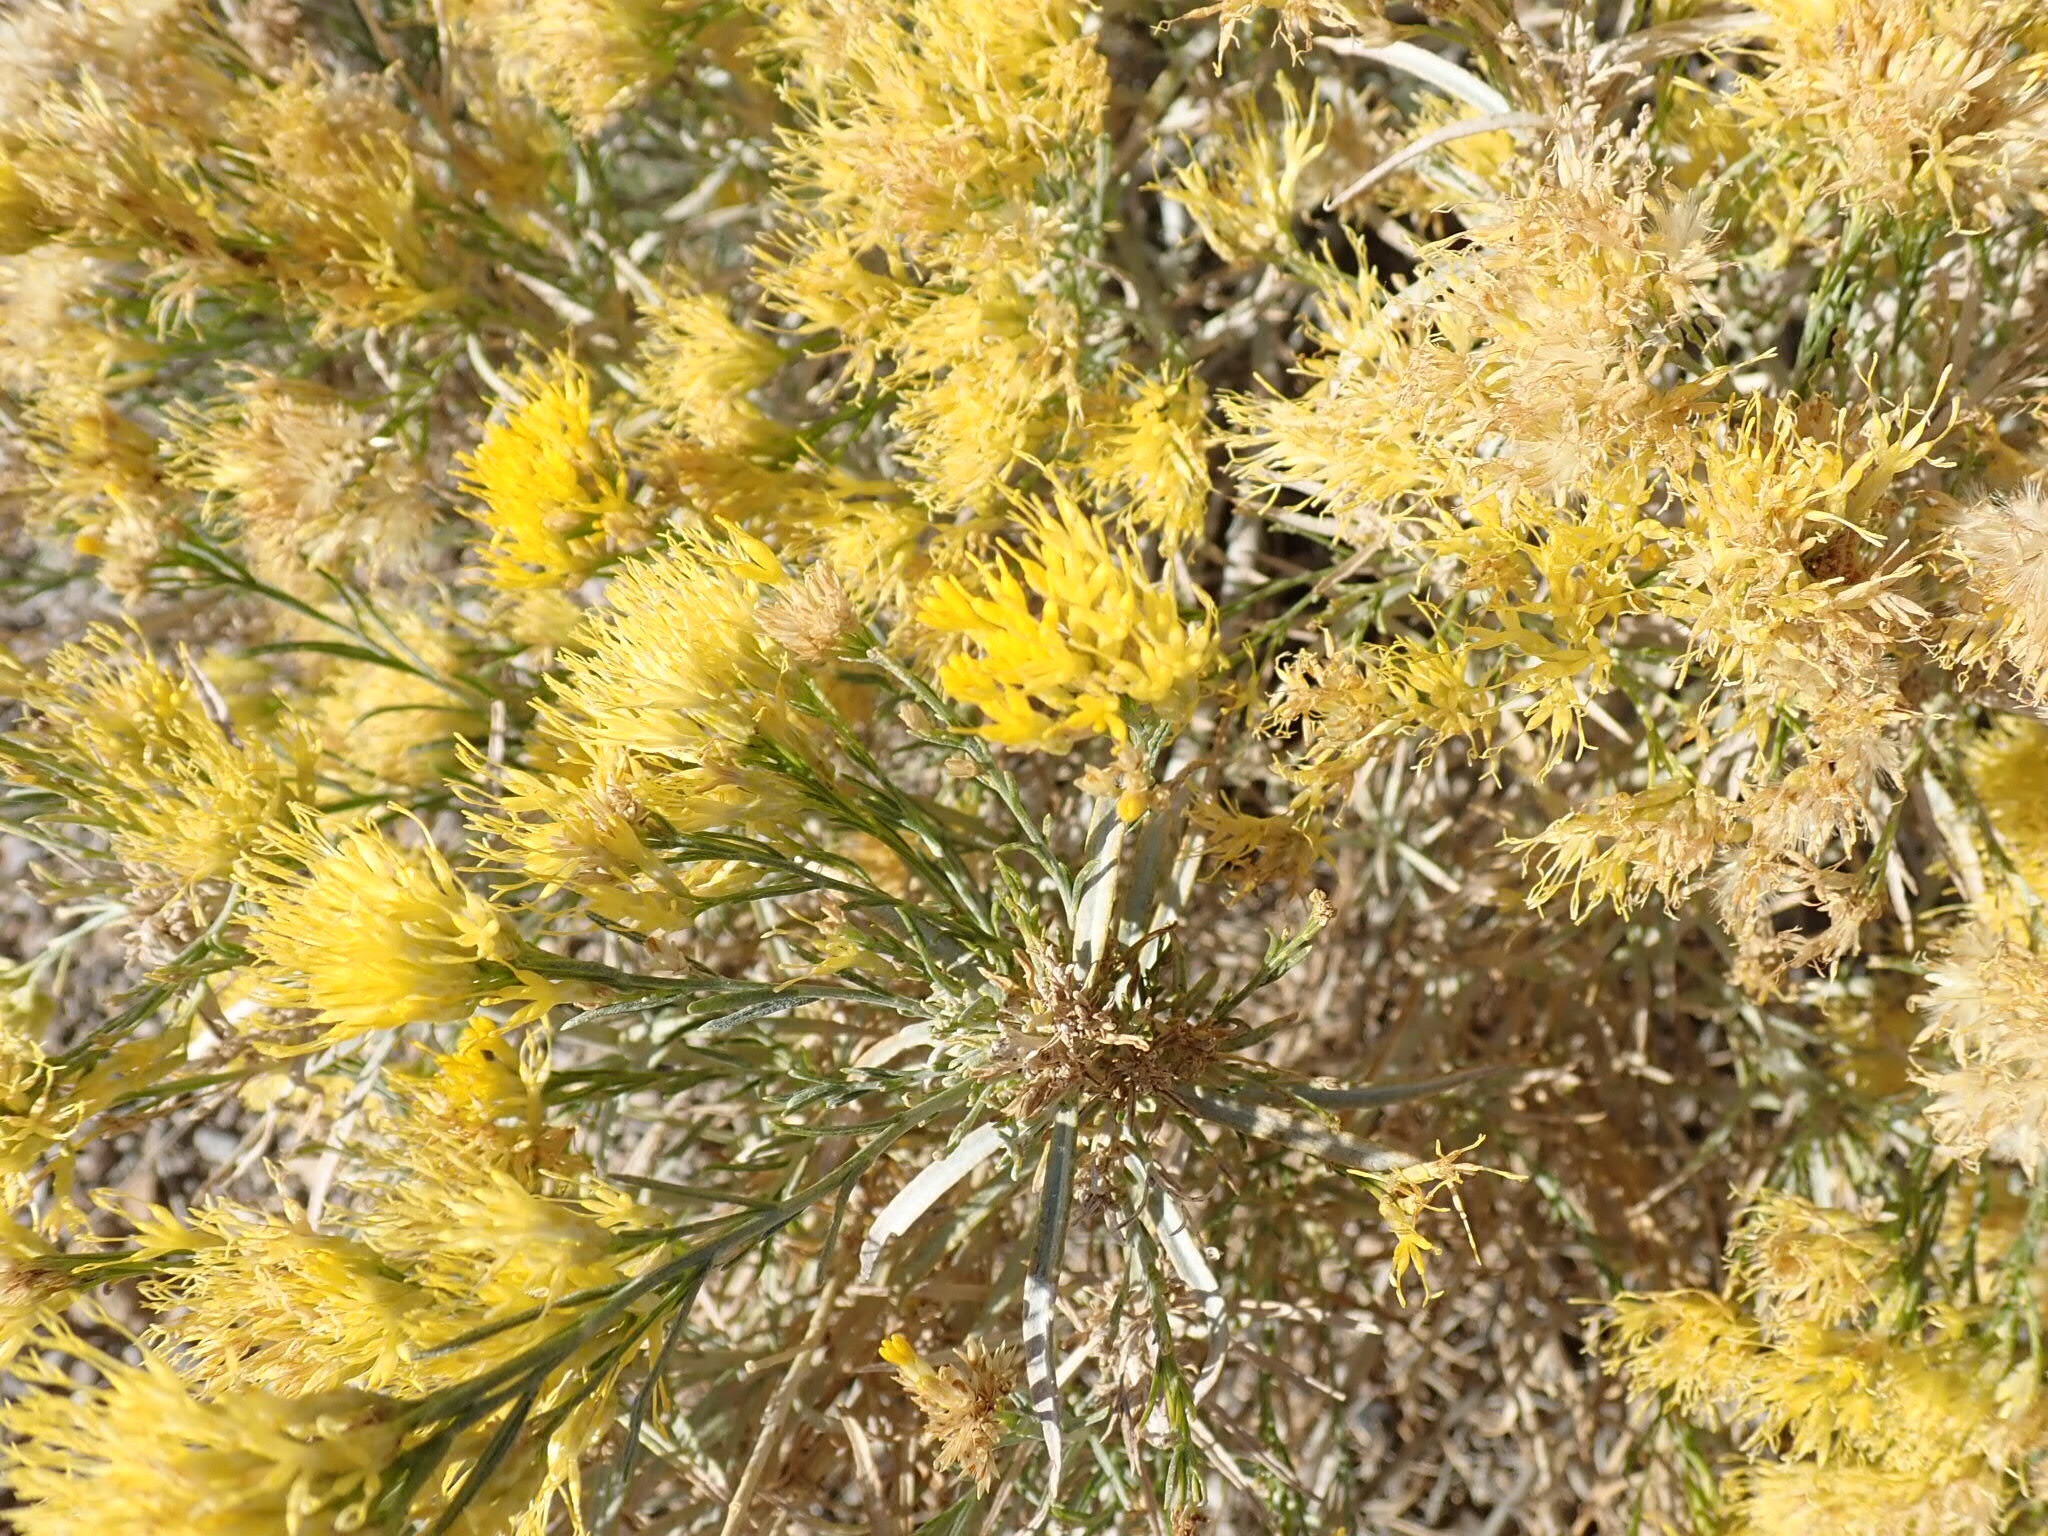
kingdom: Plantae
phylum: Tracheophyta
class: Magnoliopsida
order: Asterales
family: Asteraceae
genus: Ericameria
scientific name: Ericameria nauseosa
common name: Rubber rabbitbrush
